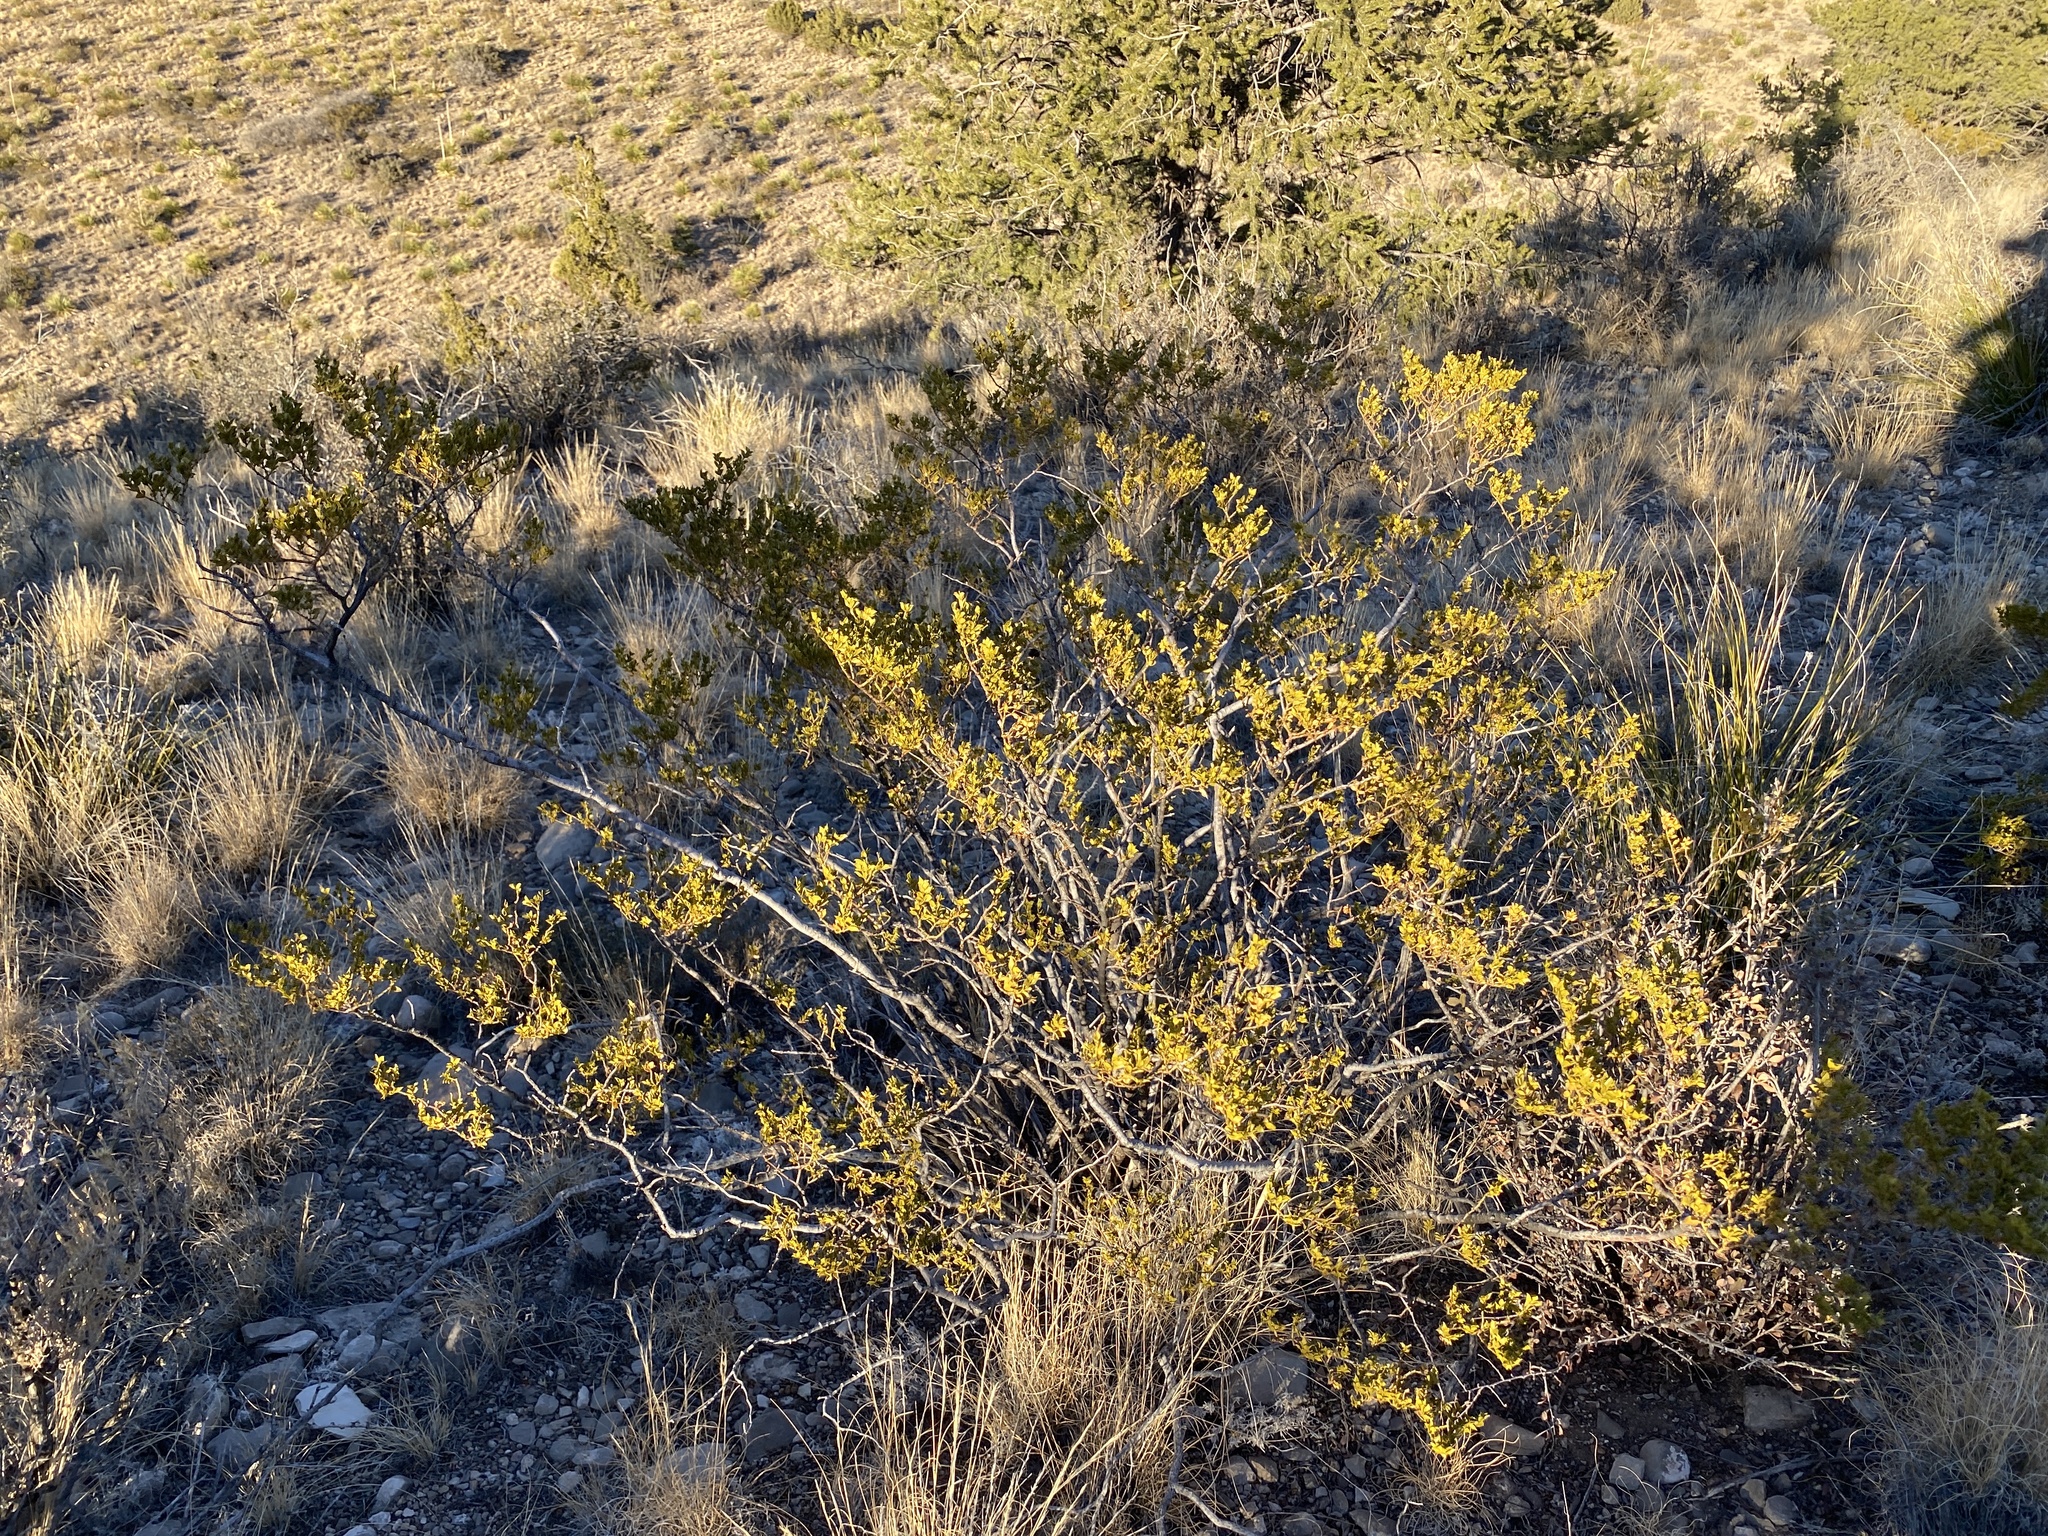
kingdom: Plantae
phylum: Tracheophyta
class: Magnoliopsida
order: Zygophyllales
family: Zygophyllaceae
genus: Larrea
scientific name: Larrea tridentata
